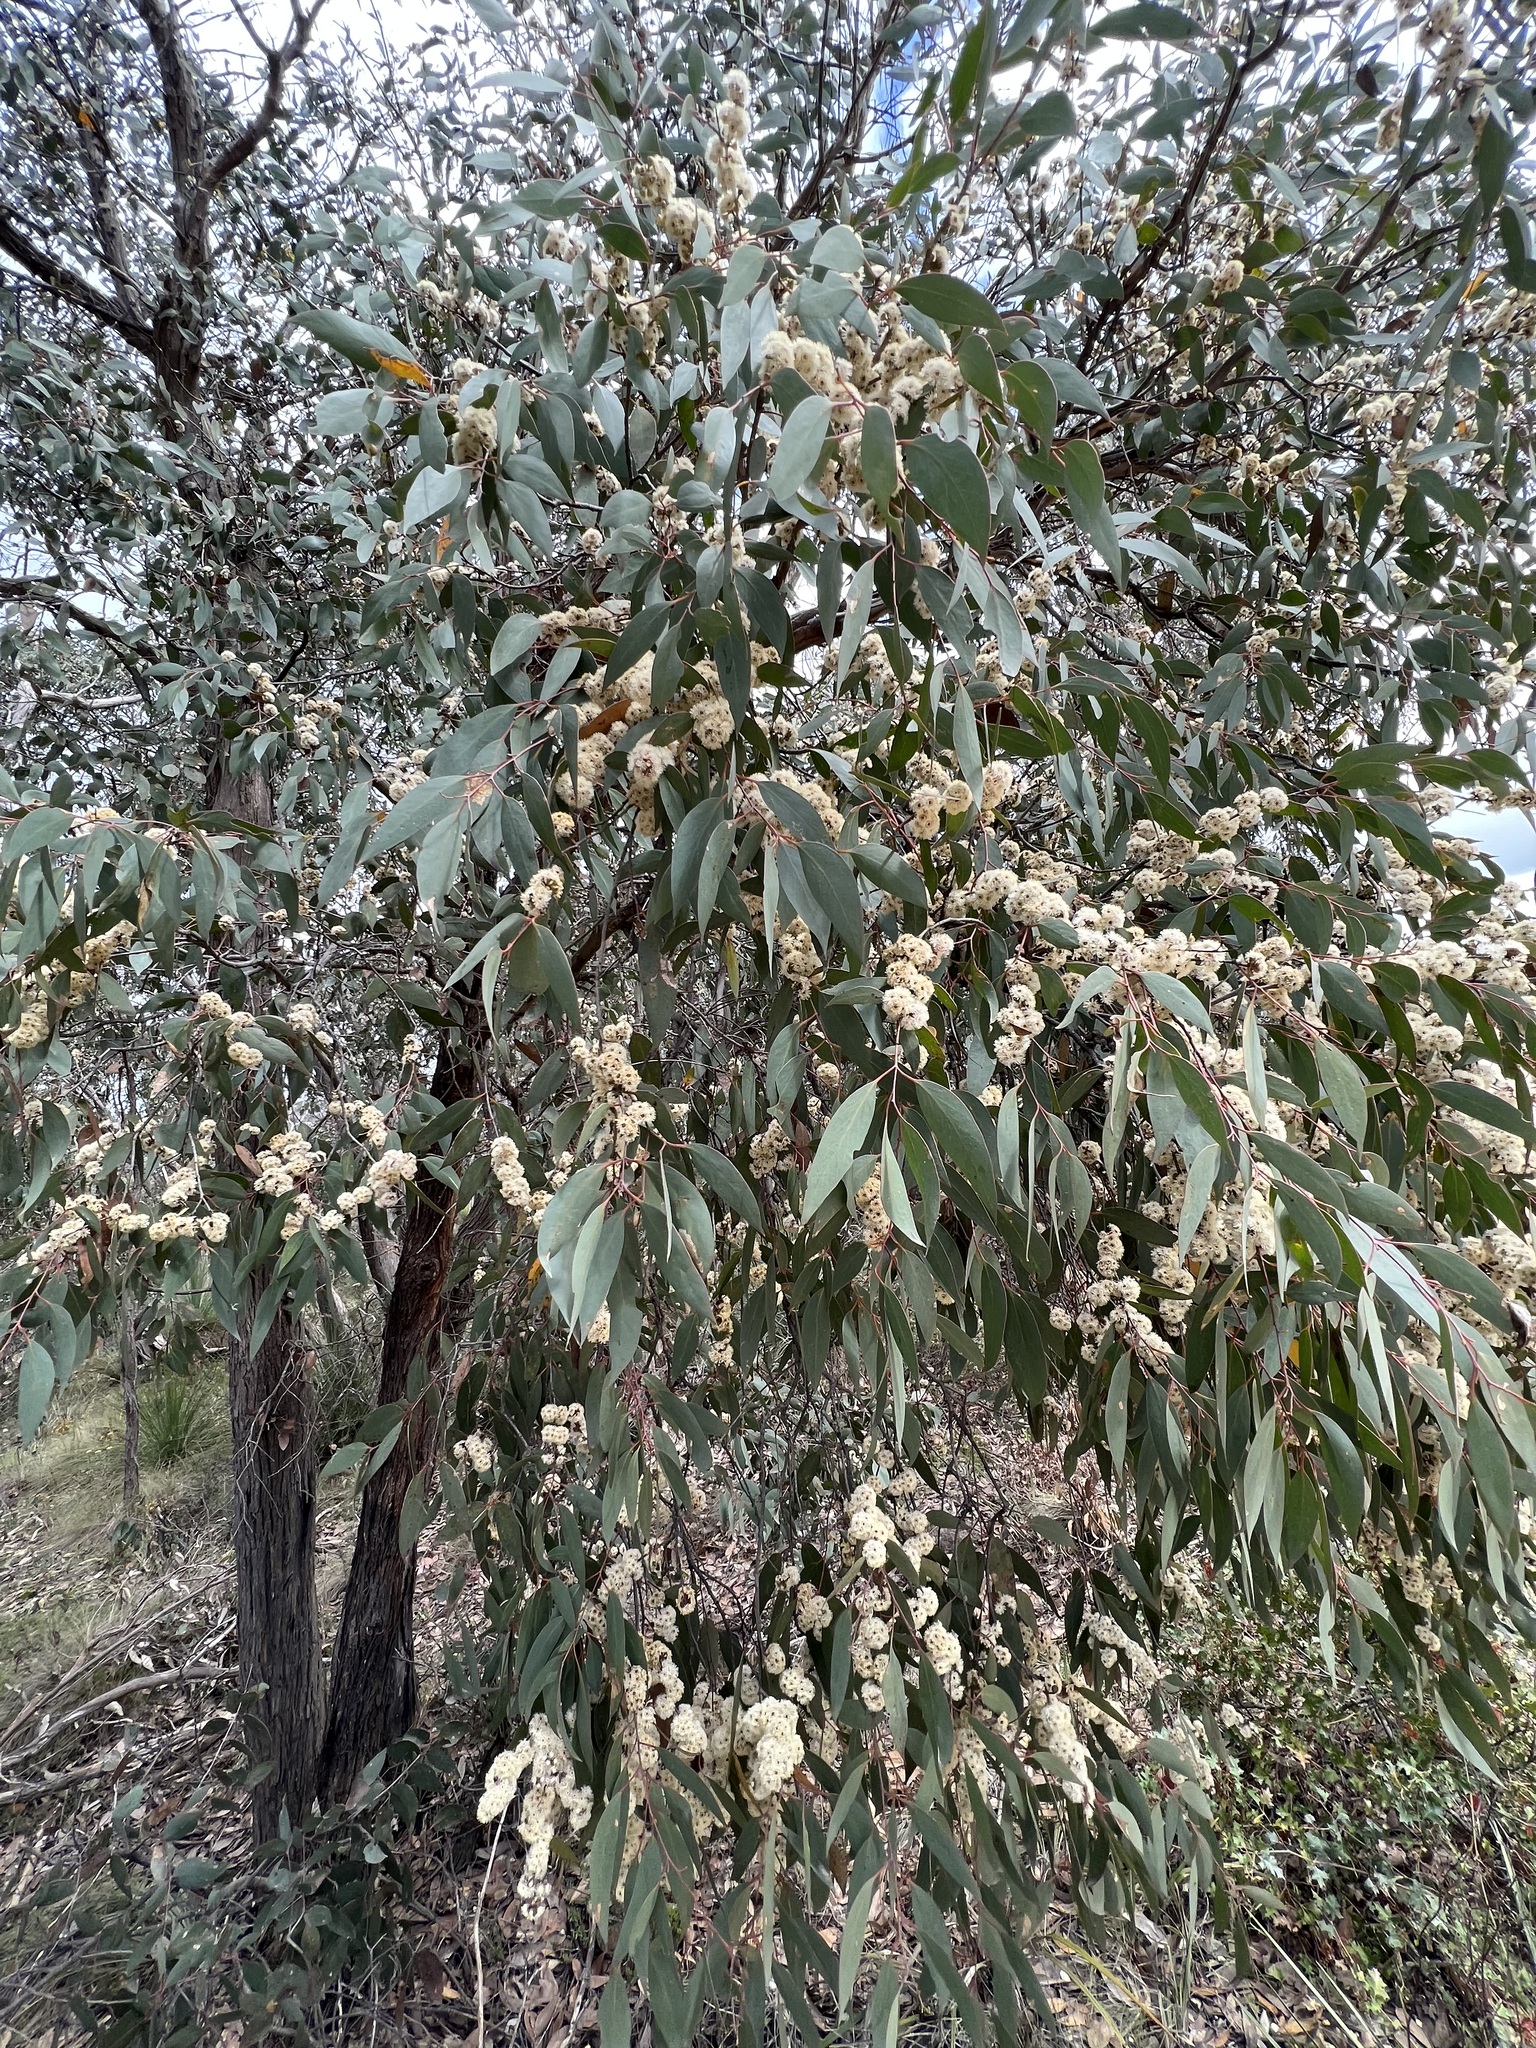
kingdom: Plantae
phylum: Tracheophyta
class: Magnoliopsida
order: Myrtales
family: Myrtaceae
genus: Eucalyptus
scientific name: Eucalyptus dives
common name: Blue peppermint
